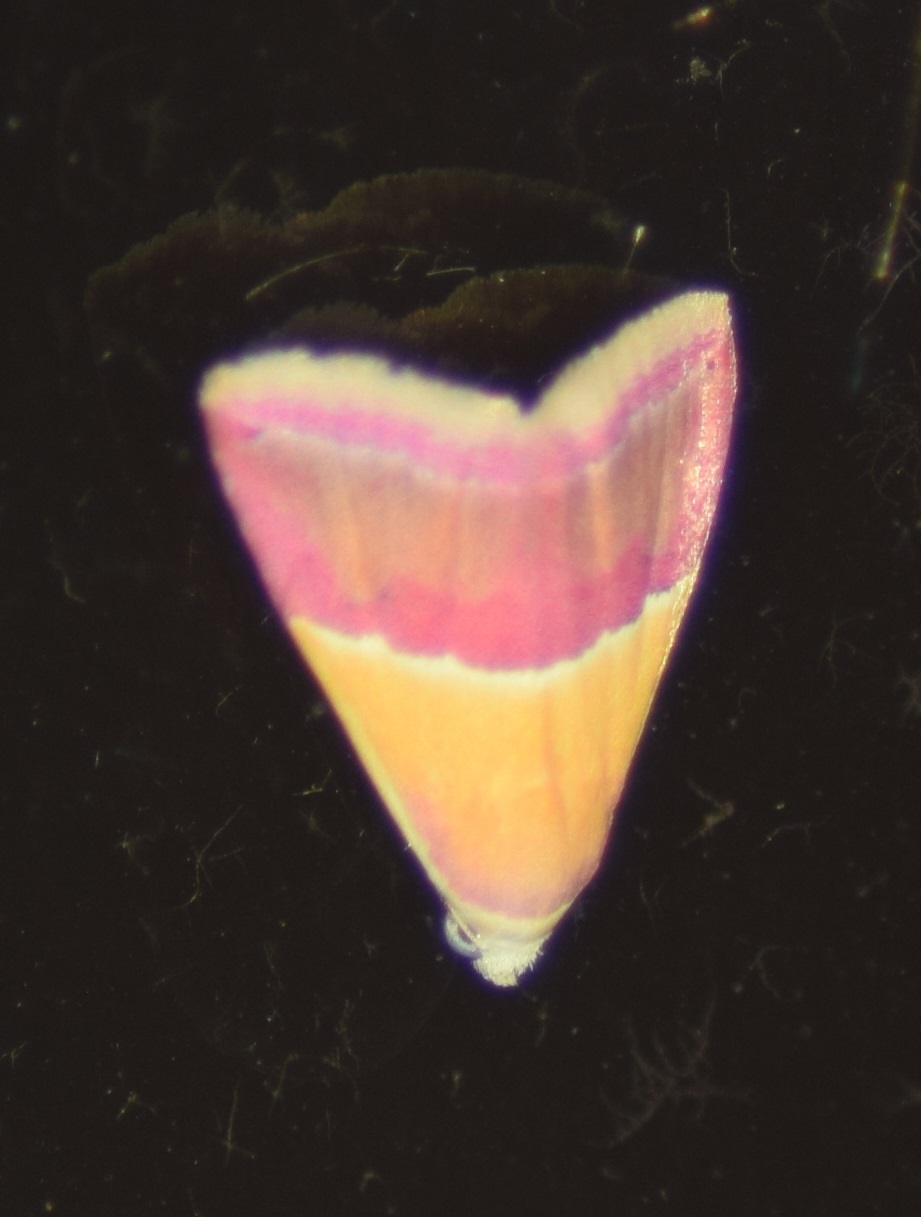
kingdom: Animalia
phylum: Arthropoda
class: Insecta
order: Lepidoptera
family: Noctuidae
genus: Eublemma
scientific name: Eublemma accedens
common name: Moth
